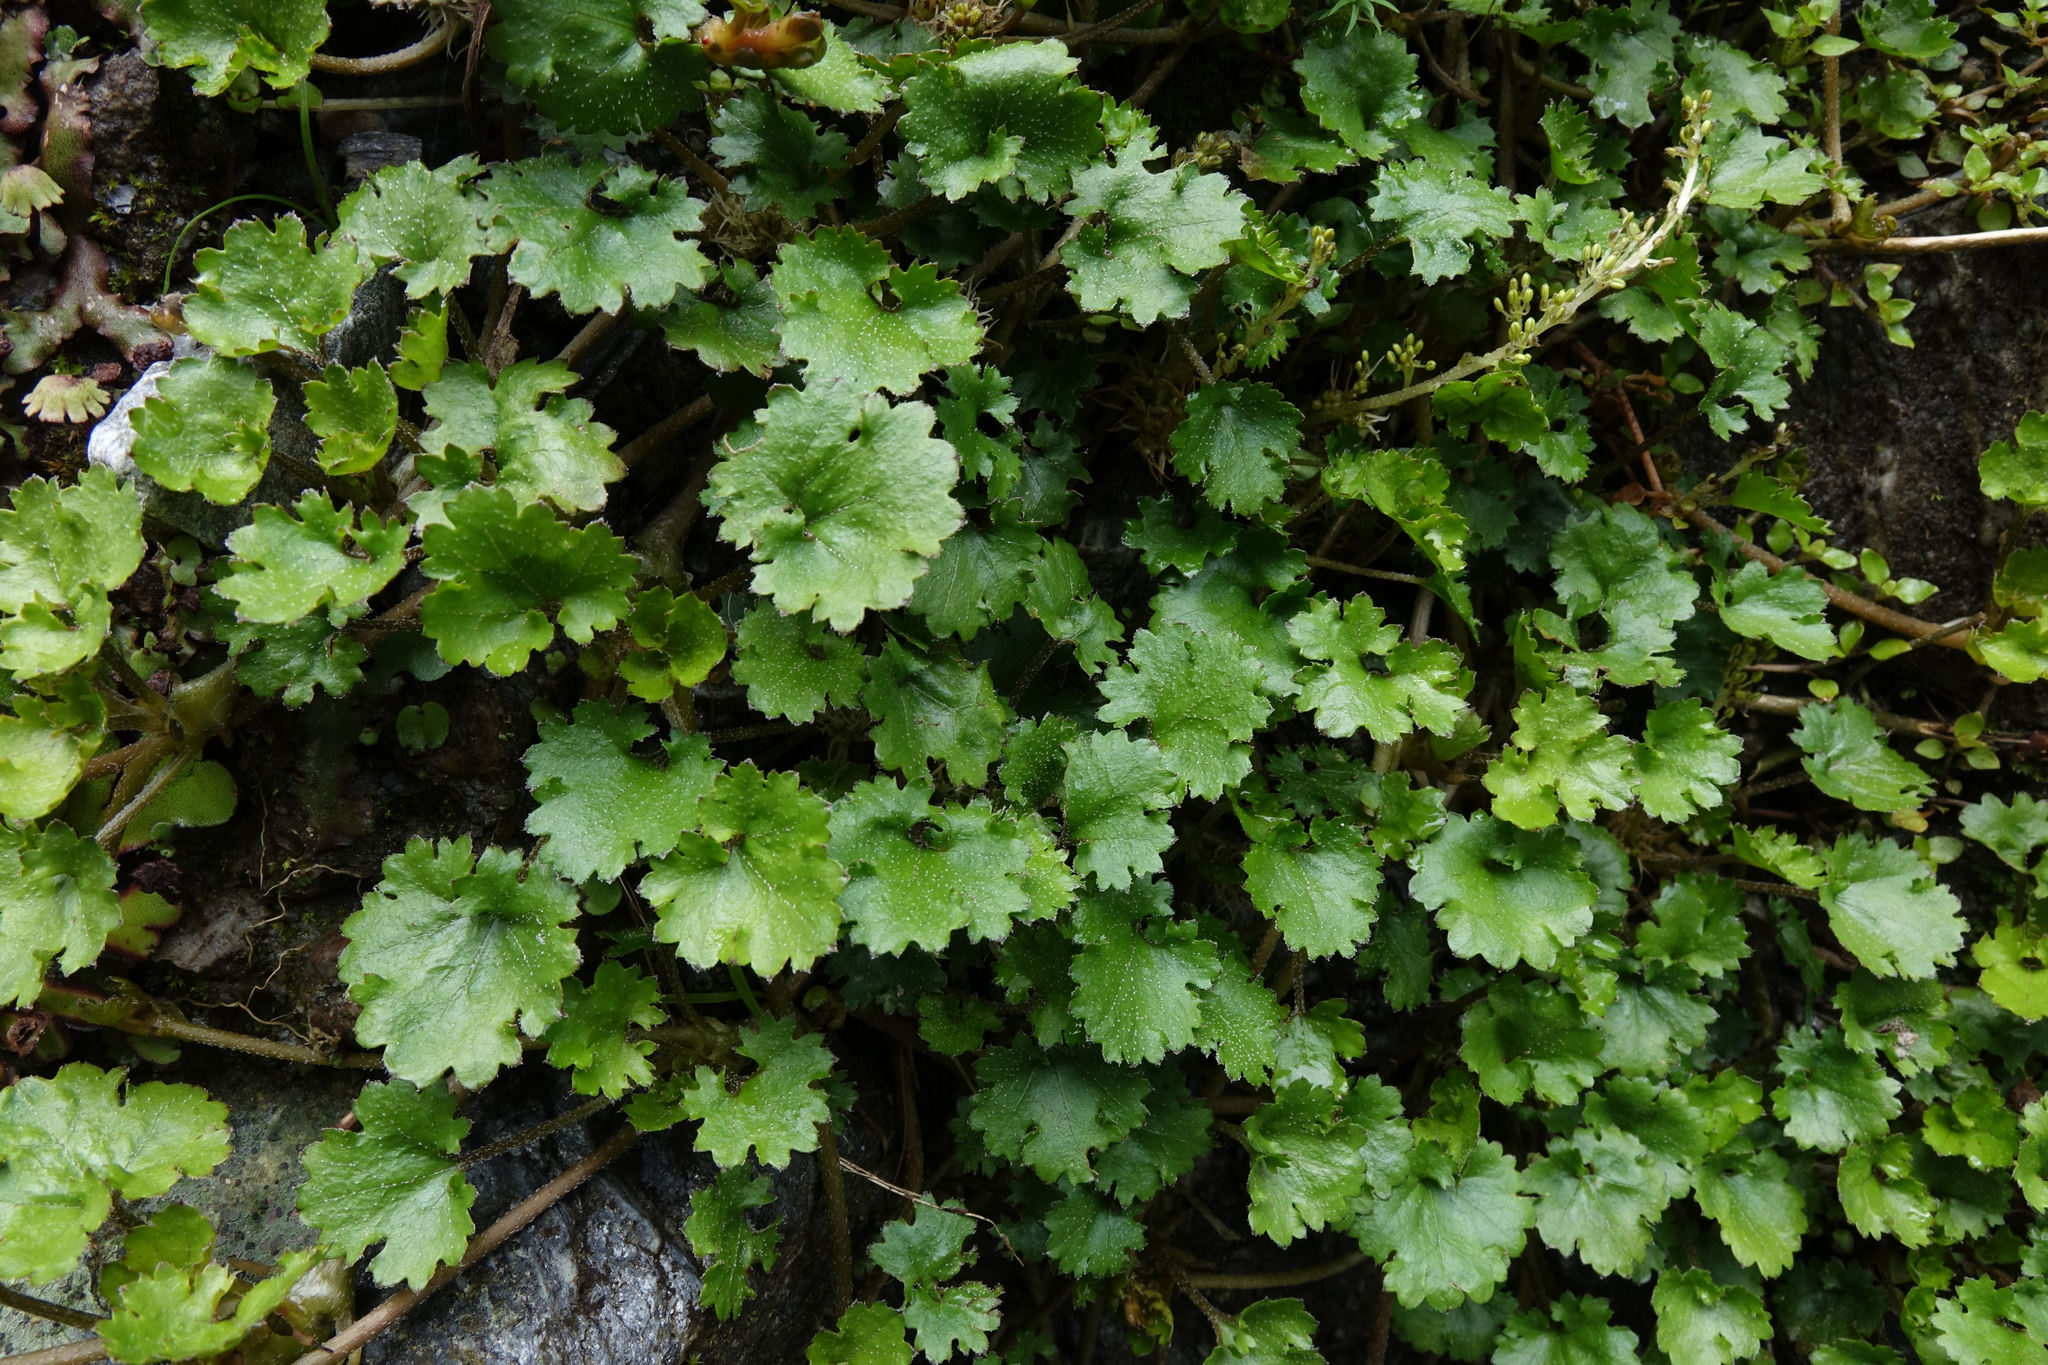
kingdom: Plantae
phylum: Tracheophyta
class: Magnoliopsida
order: Gunnerales
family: Gunneraceae
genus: Gunnera
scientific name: Gunnera monoica
